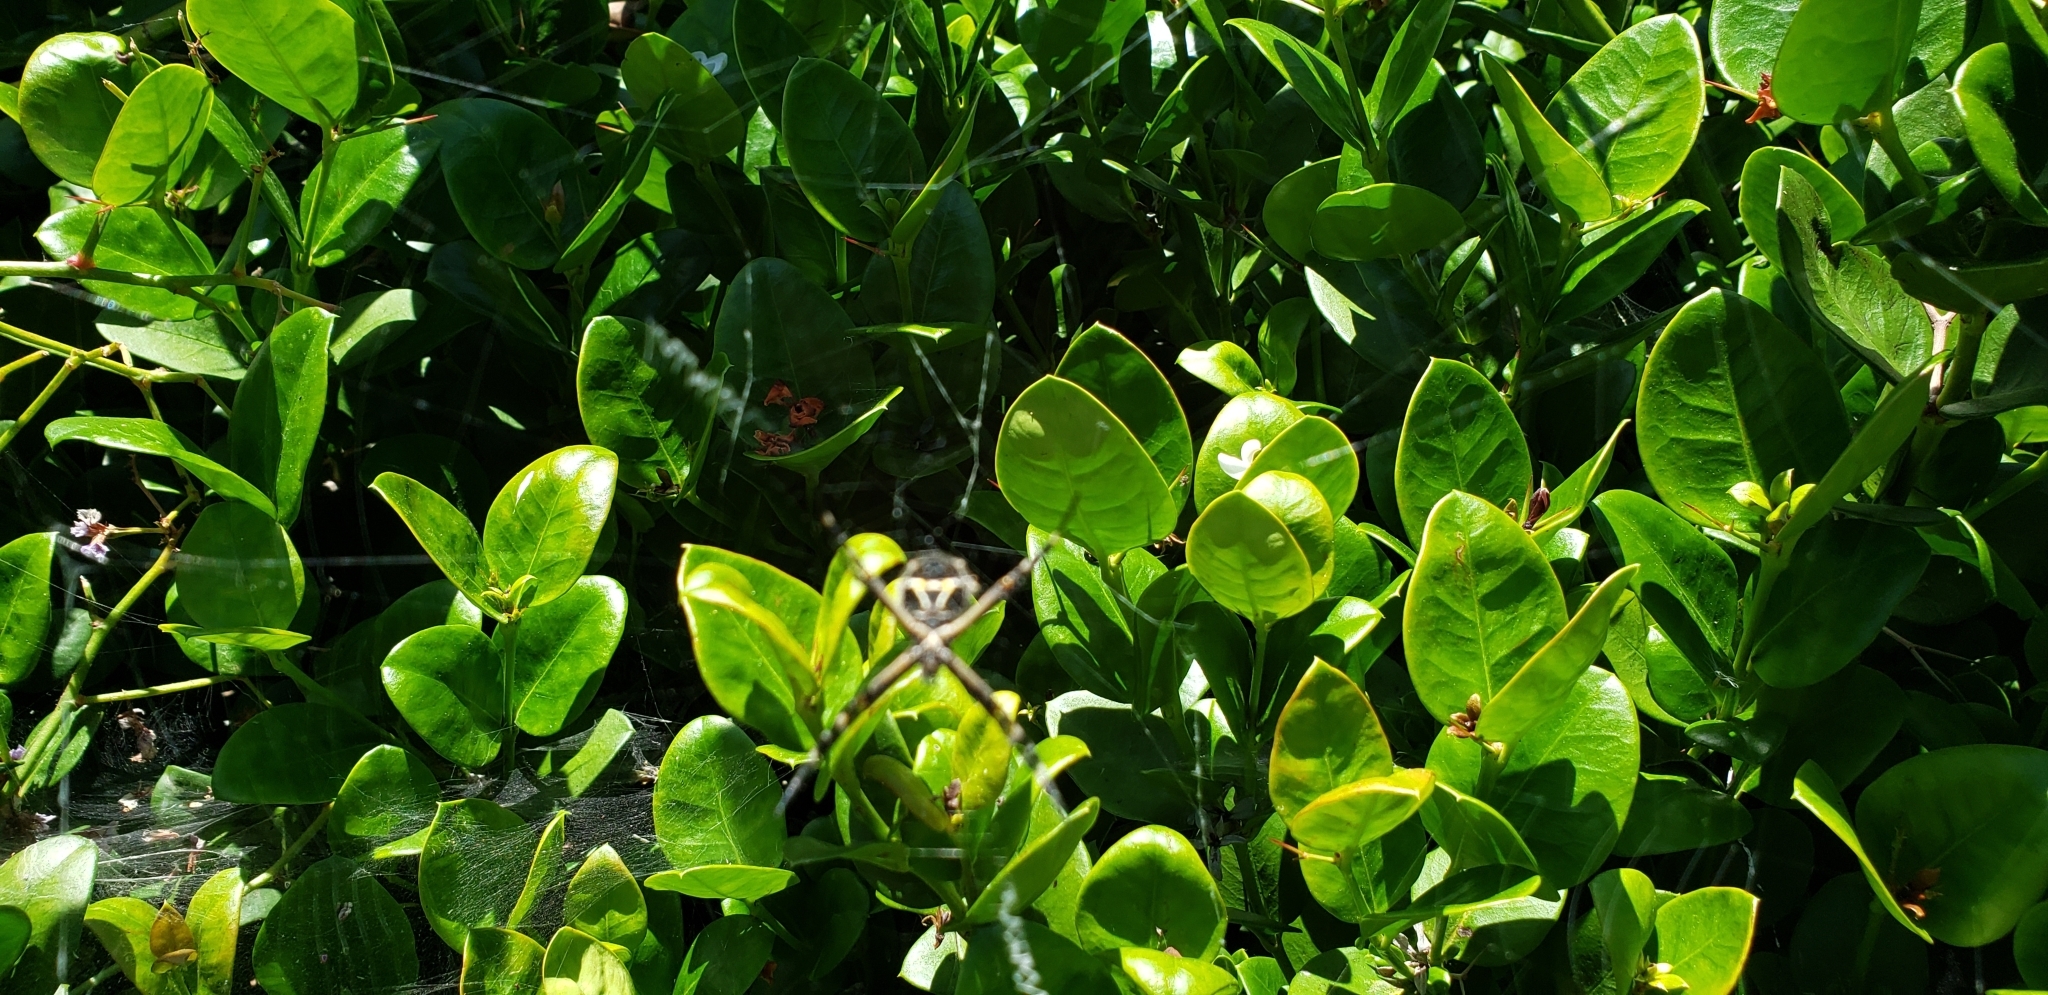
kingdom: Animalia
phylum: Arthropoda
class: Arachnida
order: Araneae
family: Araneidae
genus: Argiope
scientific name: Argiope argentata
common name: Orb weavers
